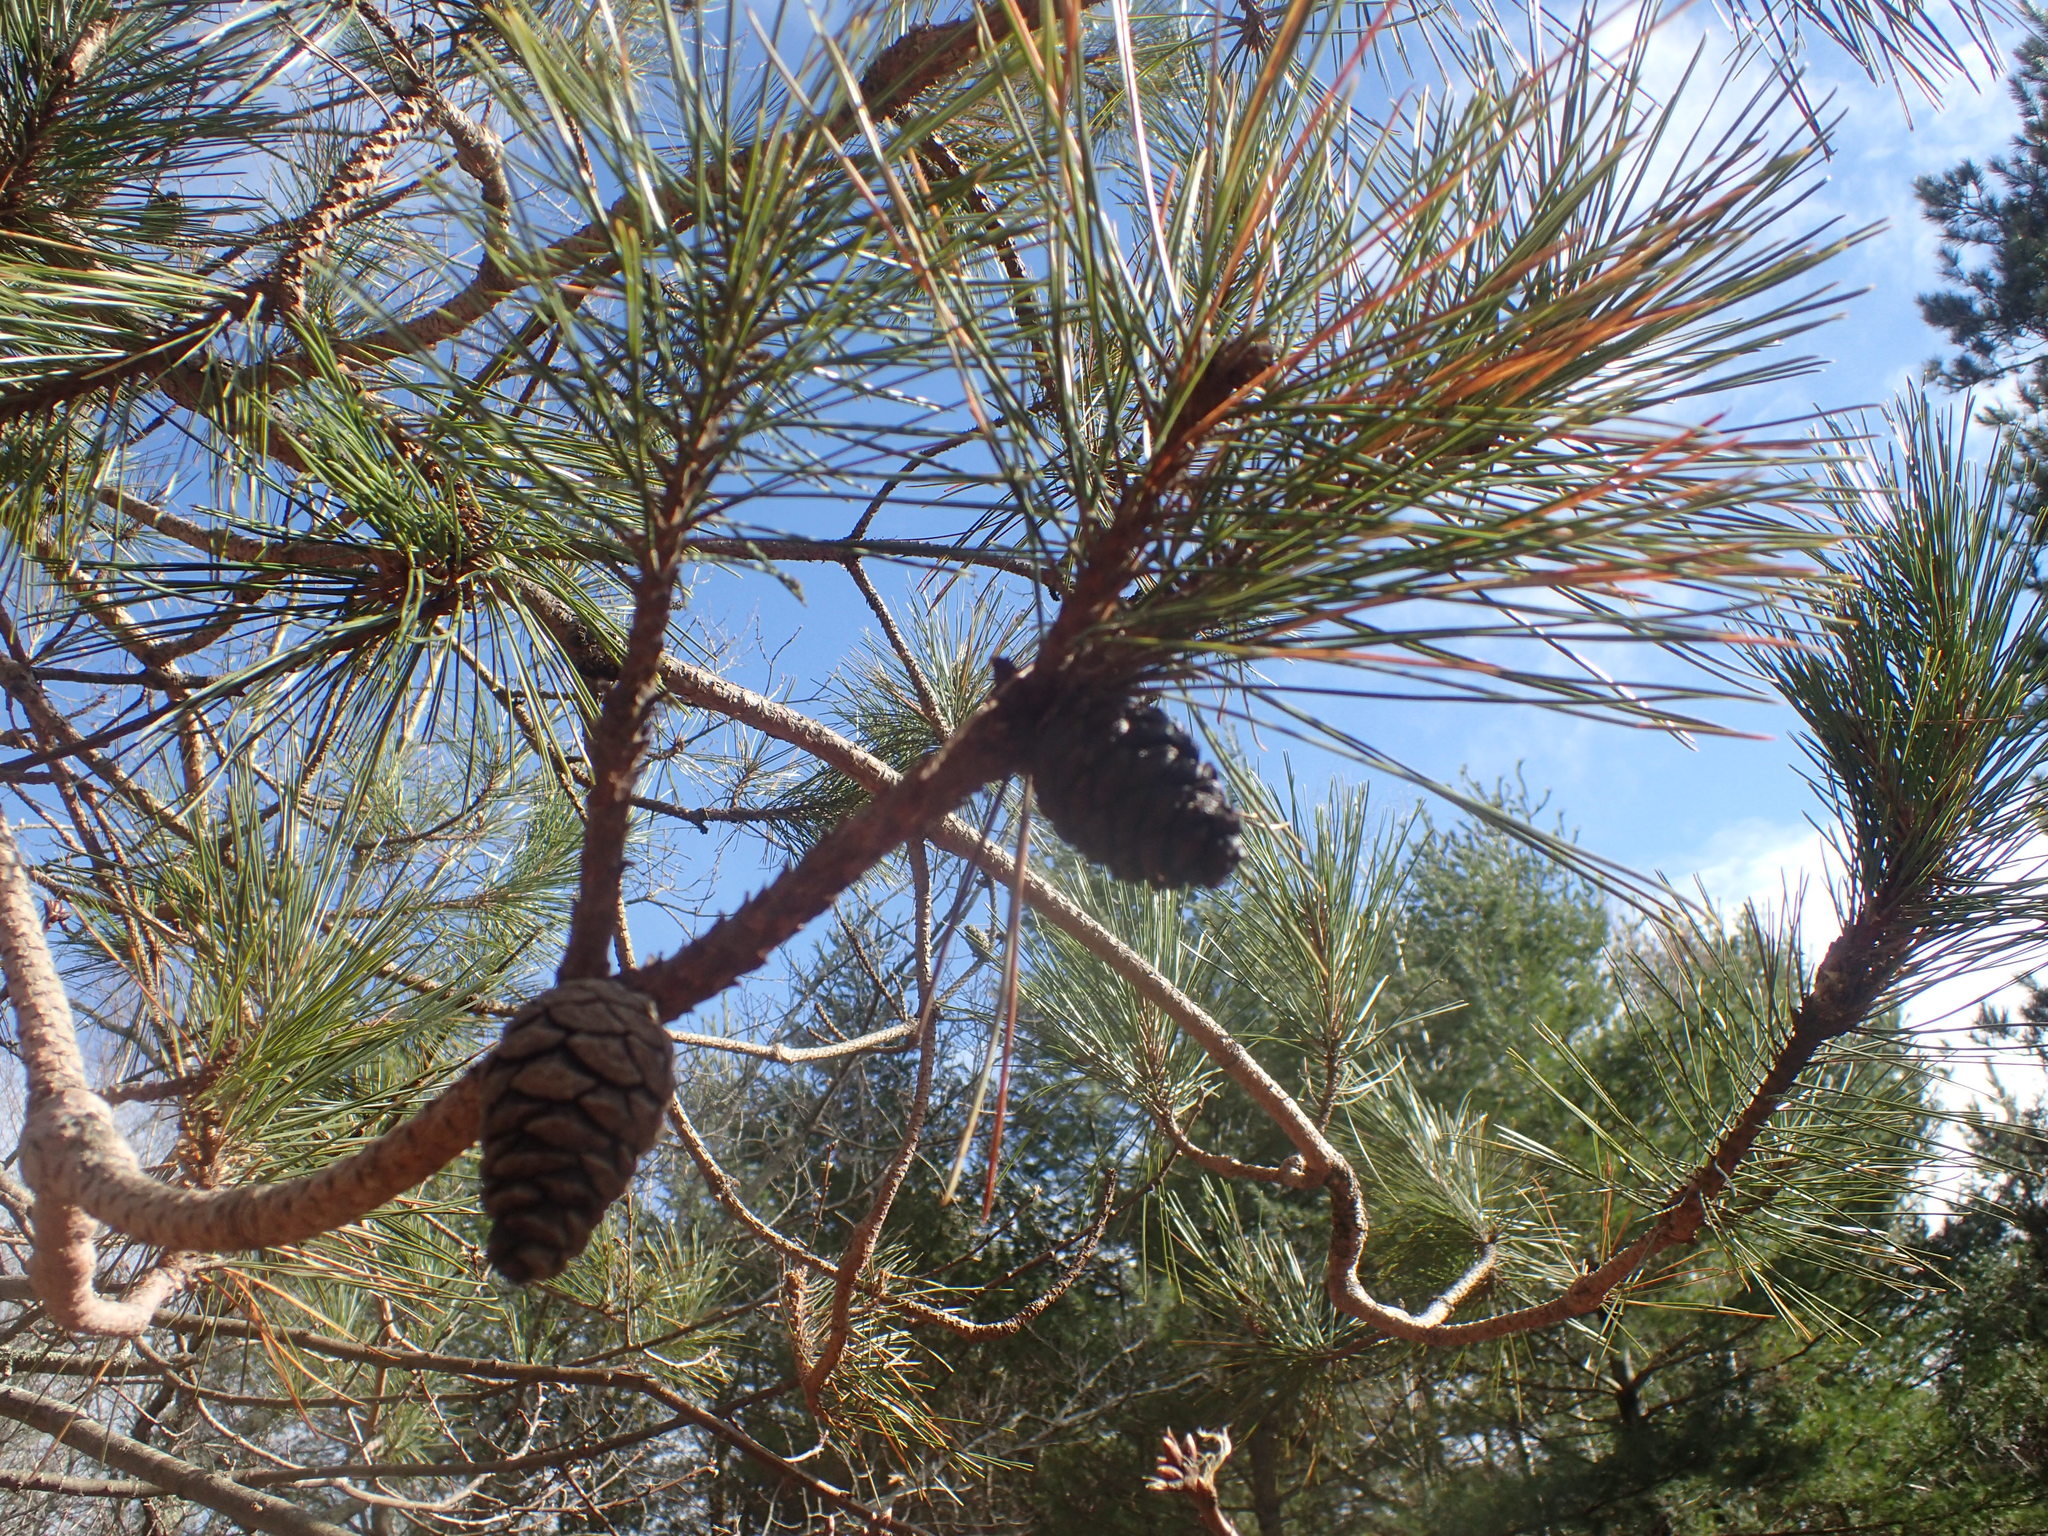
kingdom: Plantae
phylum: Tracheophyta
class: Pinopsida
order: Pinales
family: Pinaceae
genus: Pinus
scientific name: Pinus resinosa
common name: Norway pine
